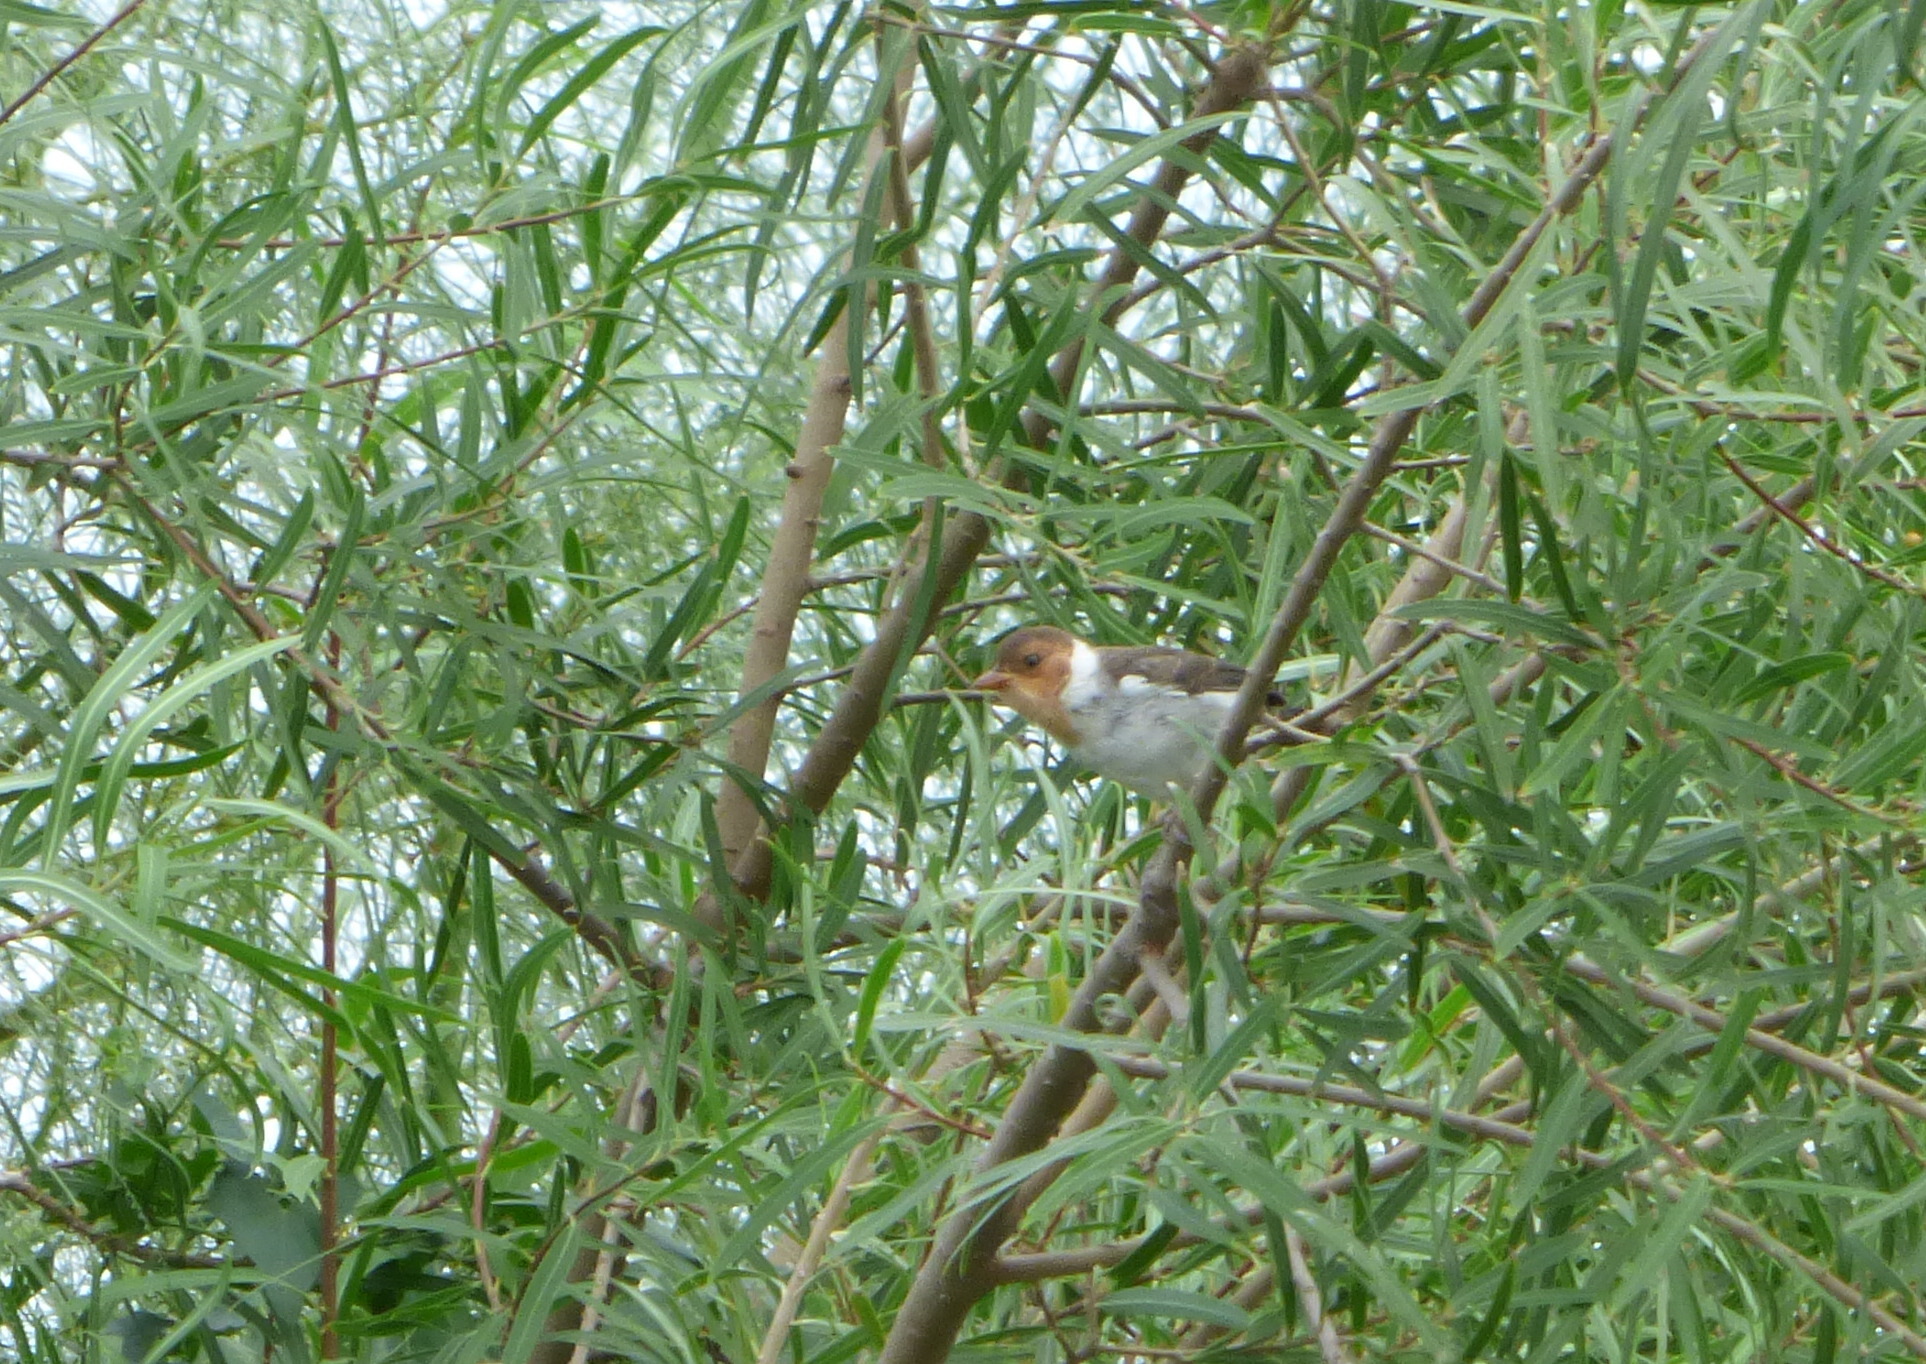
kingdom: Animalia
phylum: Chordata
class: Aves
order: Passeriformes
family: Thraupidae
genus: Paroaria
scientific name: Paroaria capitata
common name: Yellow-billed cardinal
